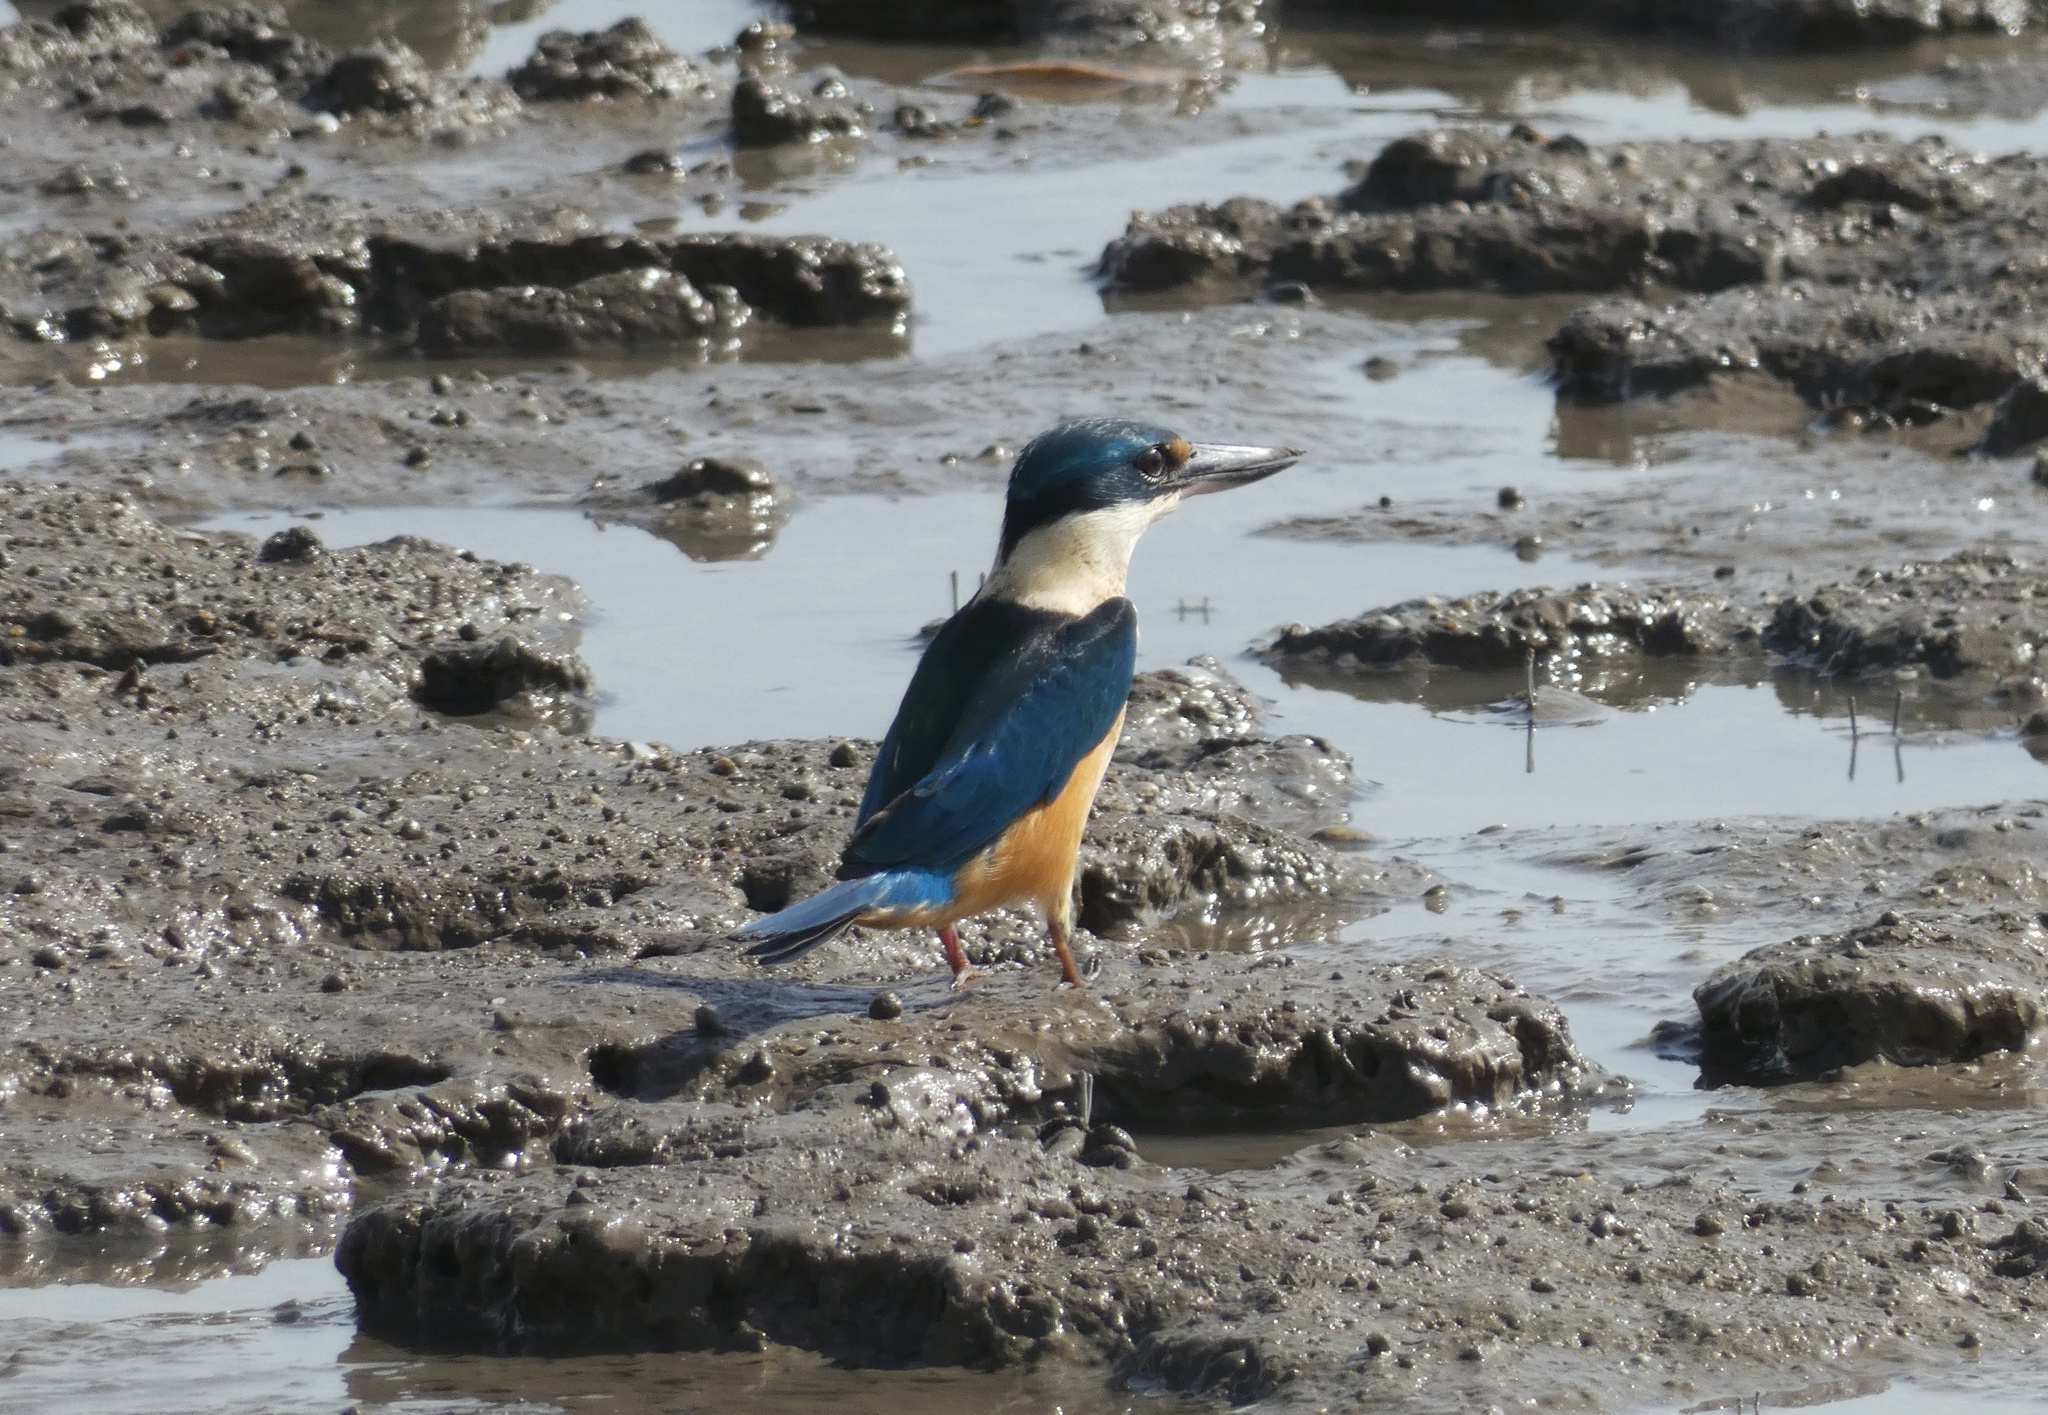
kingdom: Animalia
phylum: Chordata
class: Aves
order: Coraciiformes
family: Alcedinidae
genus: Todiramphus
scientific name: Todiramphus sanctus
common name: Sacred kingfisher
